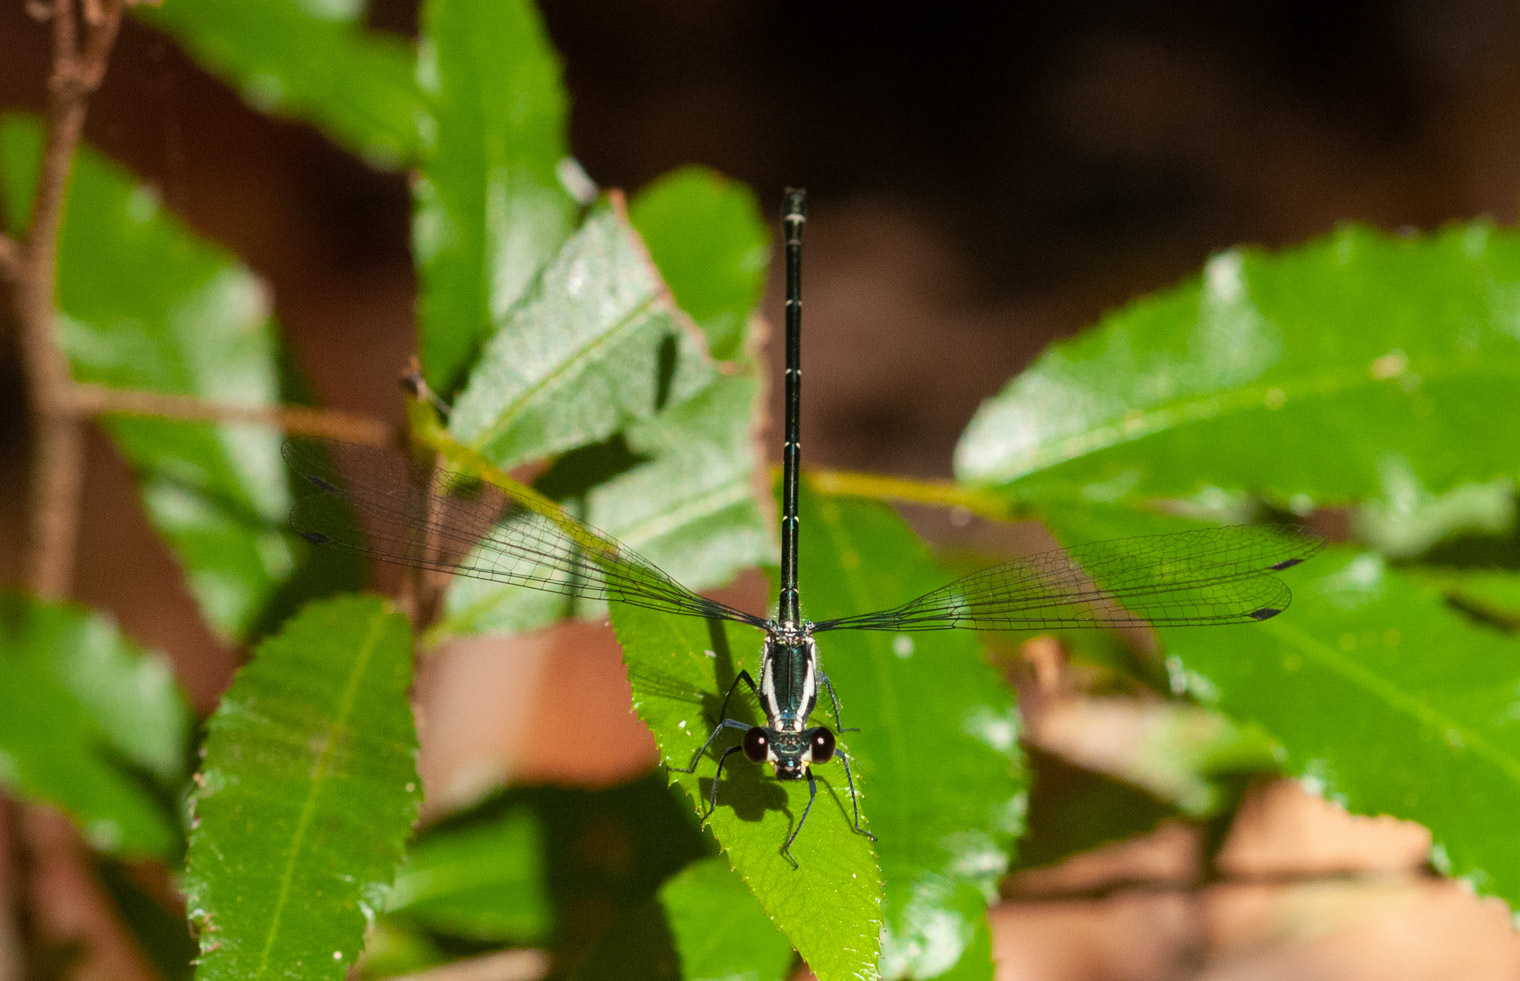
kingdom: Animalia
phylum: Arthropoda
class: Insecta
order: Odonata
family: Argiolestidae
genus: Austroargiolestes
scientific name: Austroargiolestes icteromelas
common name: Common flatwing
